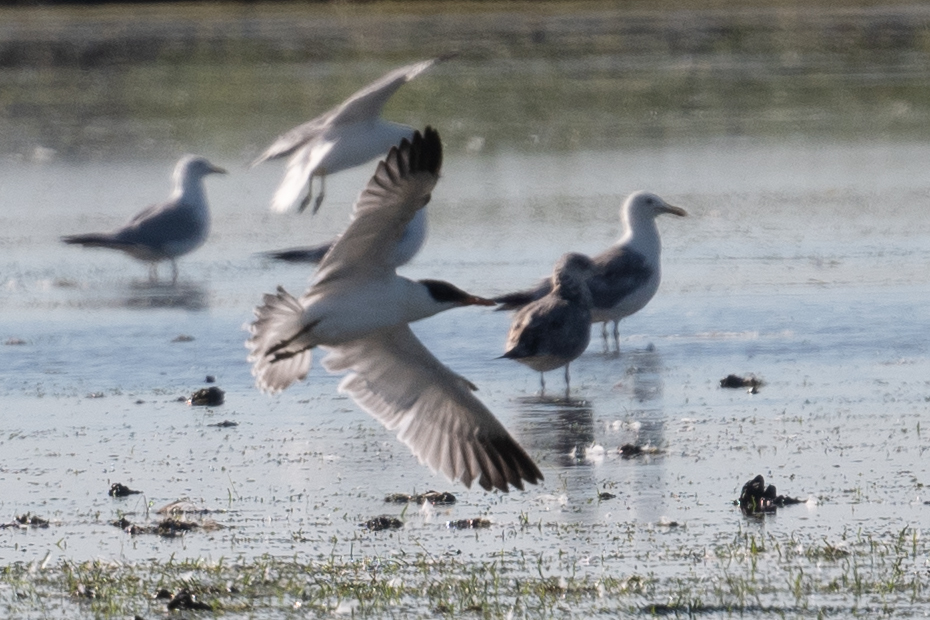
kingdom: Animalia
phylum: Chordata
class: Aves
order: Charadriiformes
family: Laridae
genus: Hydroprogne
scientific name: Hydroprogne caspia
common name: Caspian tern
